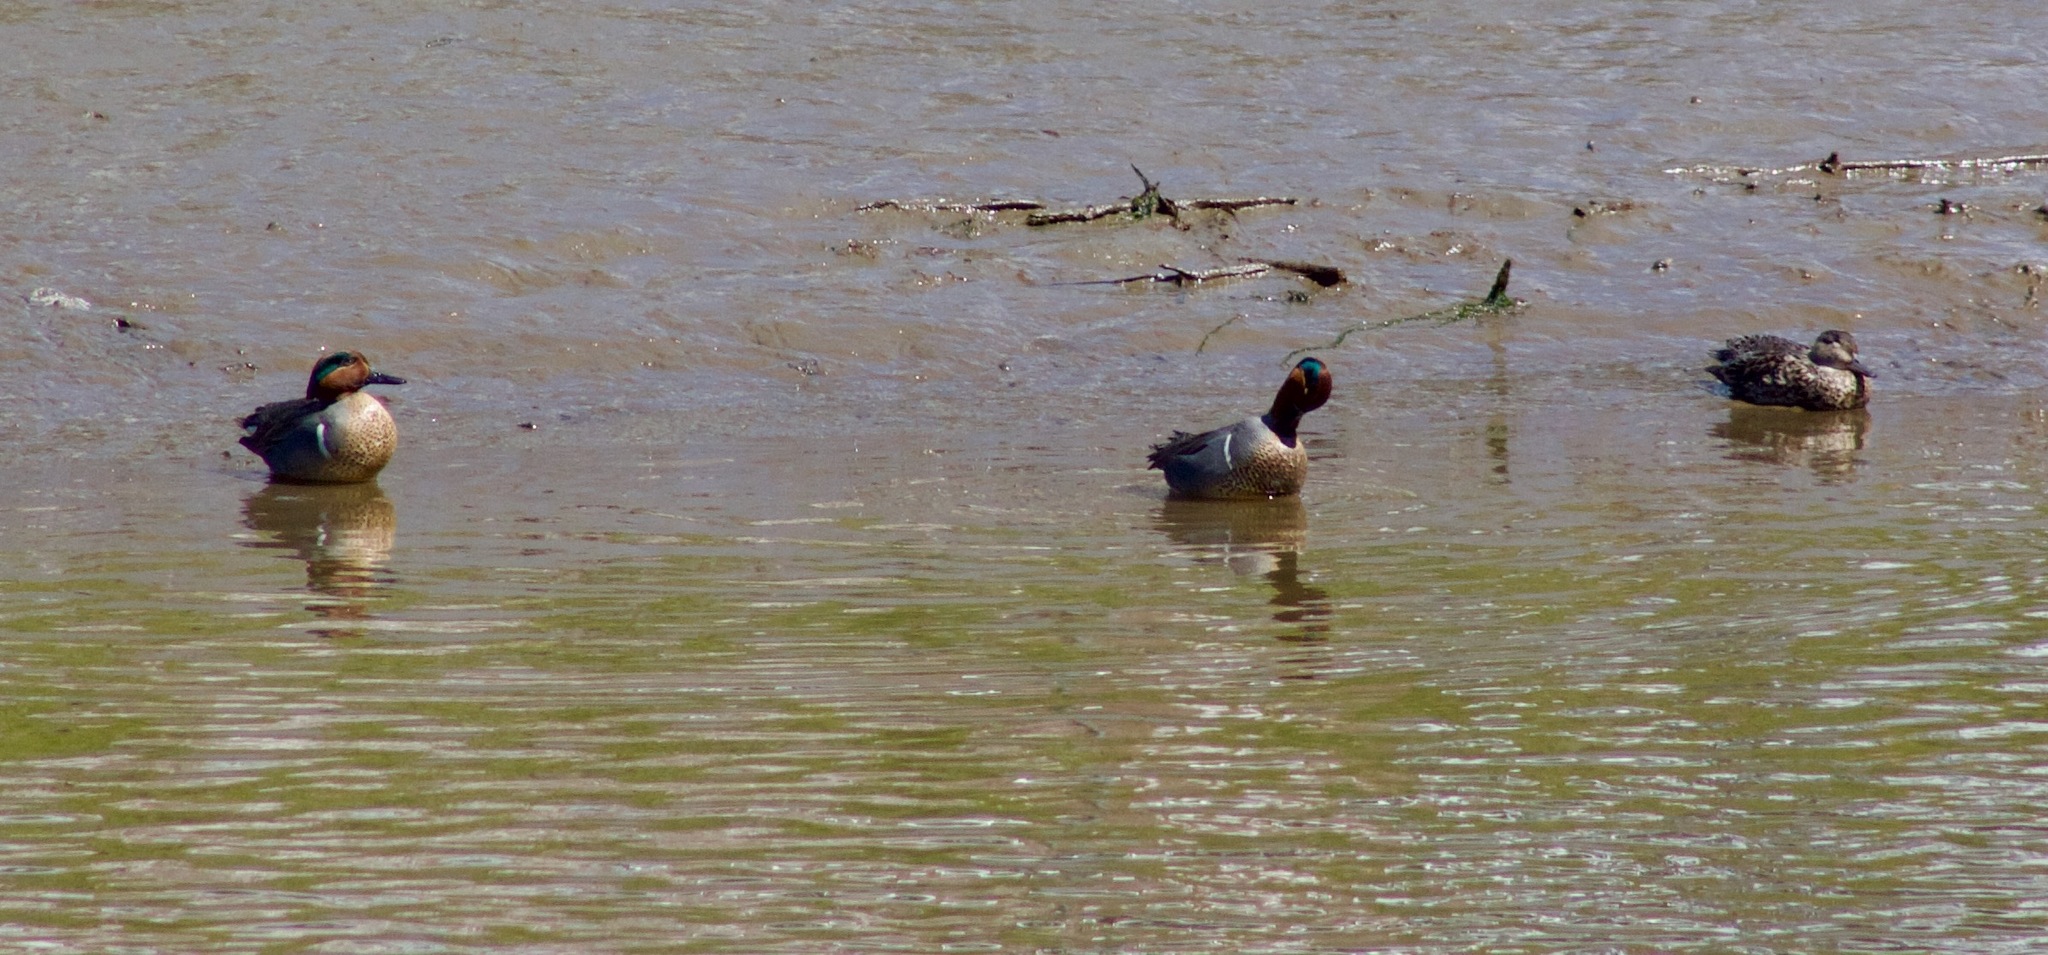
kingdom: Animalia
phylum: Chordata
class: Aves
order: Anseriformes
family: Anatidae
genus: Anas
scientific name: Anas crecca
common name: Eurasian teal
